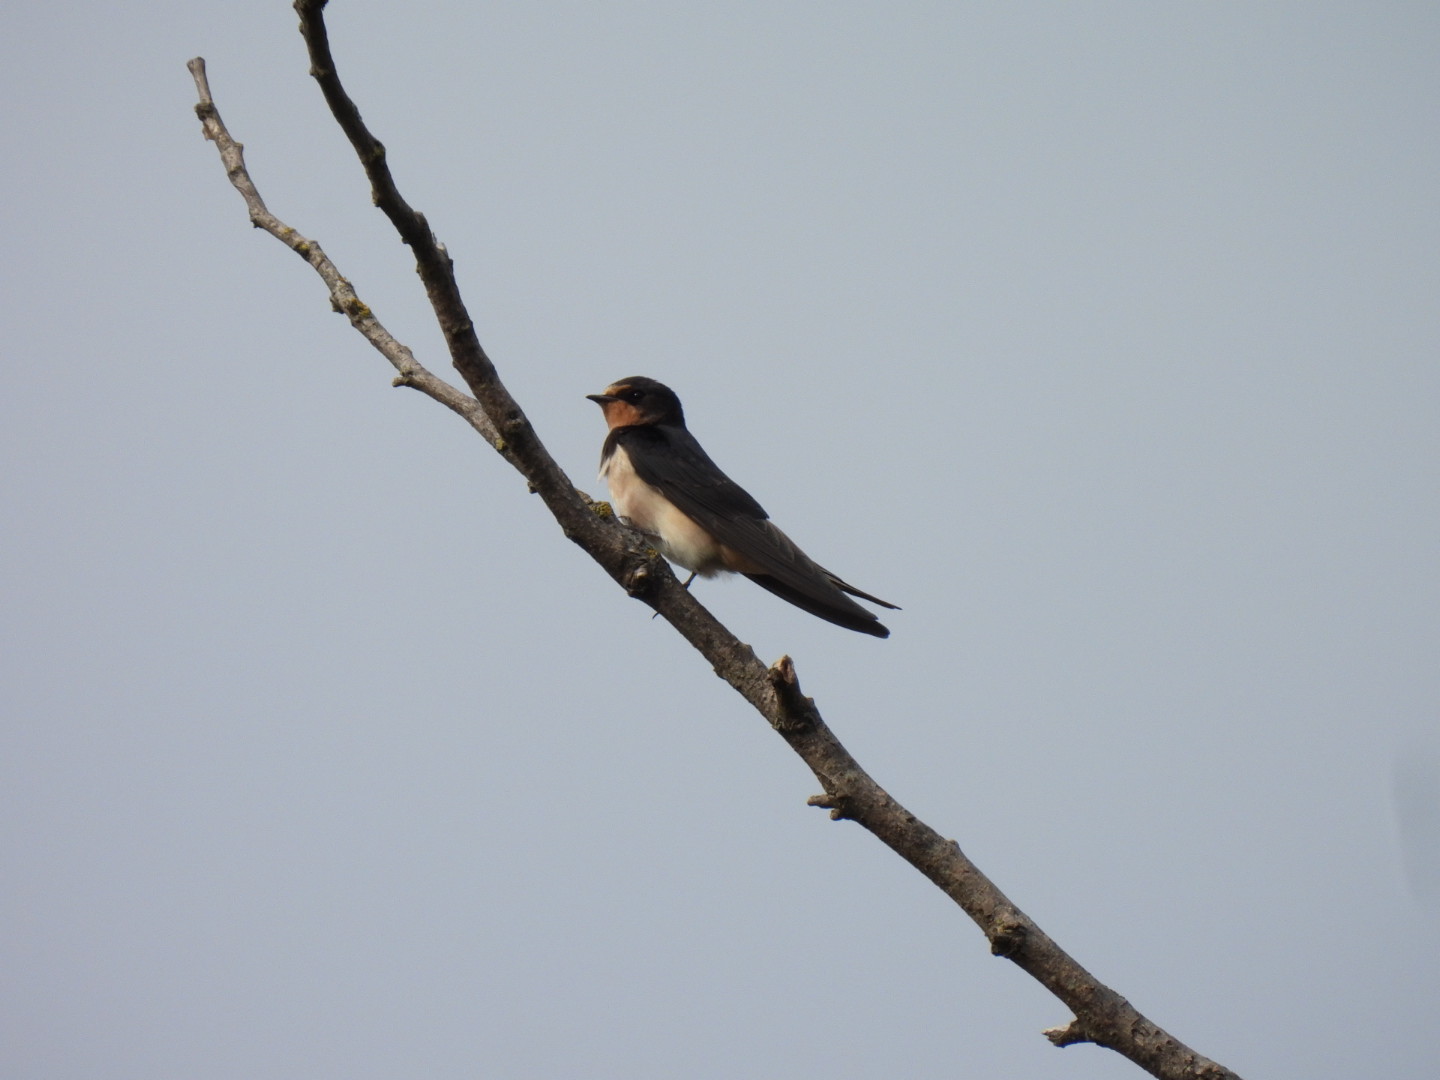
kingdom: Animalia
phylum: Chordata
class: Aves
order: Passeriformes
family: Hirundinidae
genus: Hirundo
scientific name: Hirundo rustica
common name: Barn swallow
